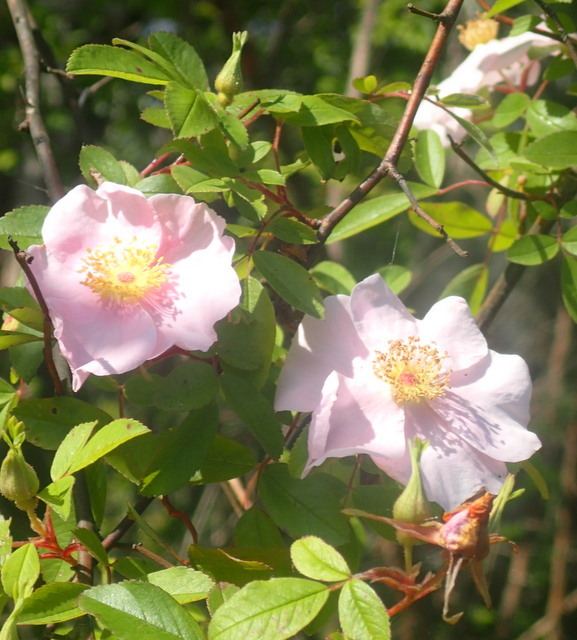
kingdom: Plantae
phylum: Tracheophyta
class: Magnoliopsida
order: Rosales
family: Rosaceae
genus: Rosa
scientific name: Rosa palustris
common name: Swamp rose
